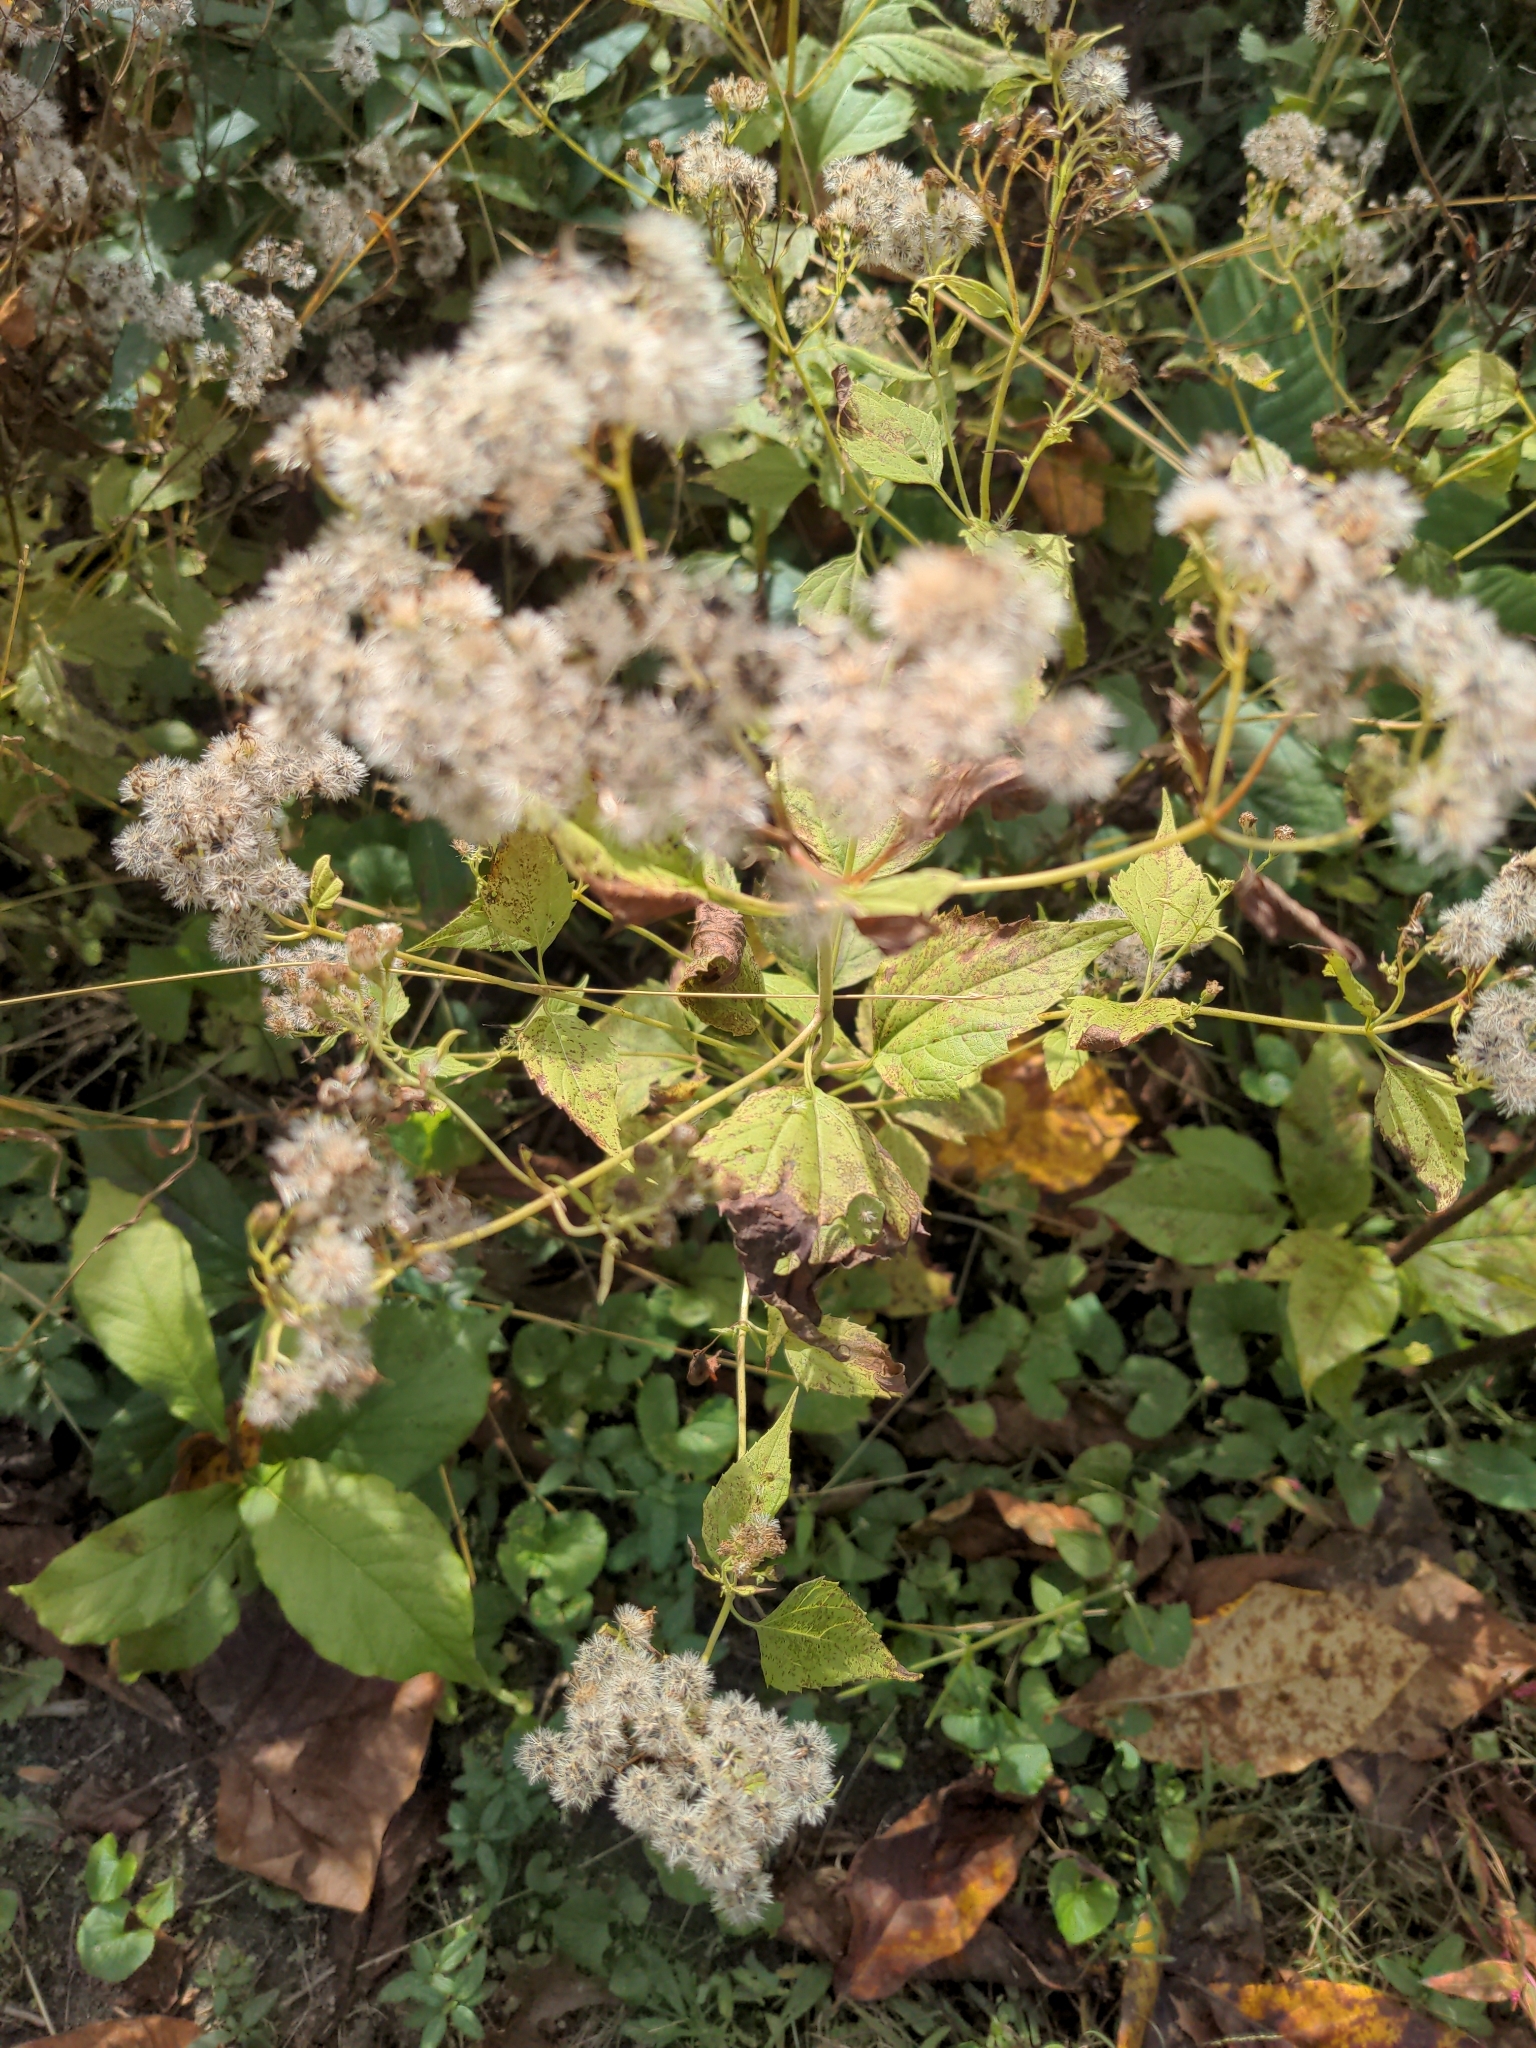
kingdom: Plantae
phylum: Tracheophyta
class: Magnoliopsida
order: Asterales
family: Asteraceae
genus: Ageratina
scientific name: Ageratina altissima
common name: White snakeroot
